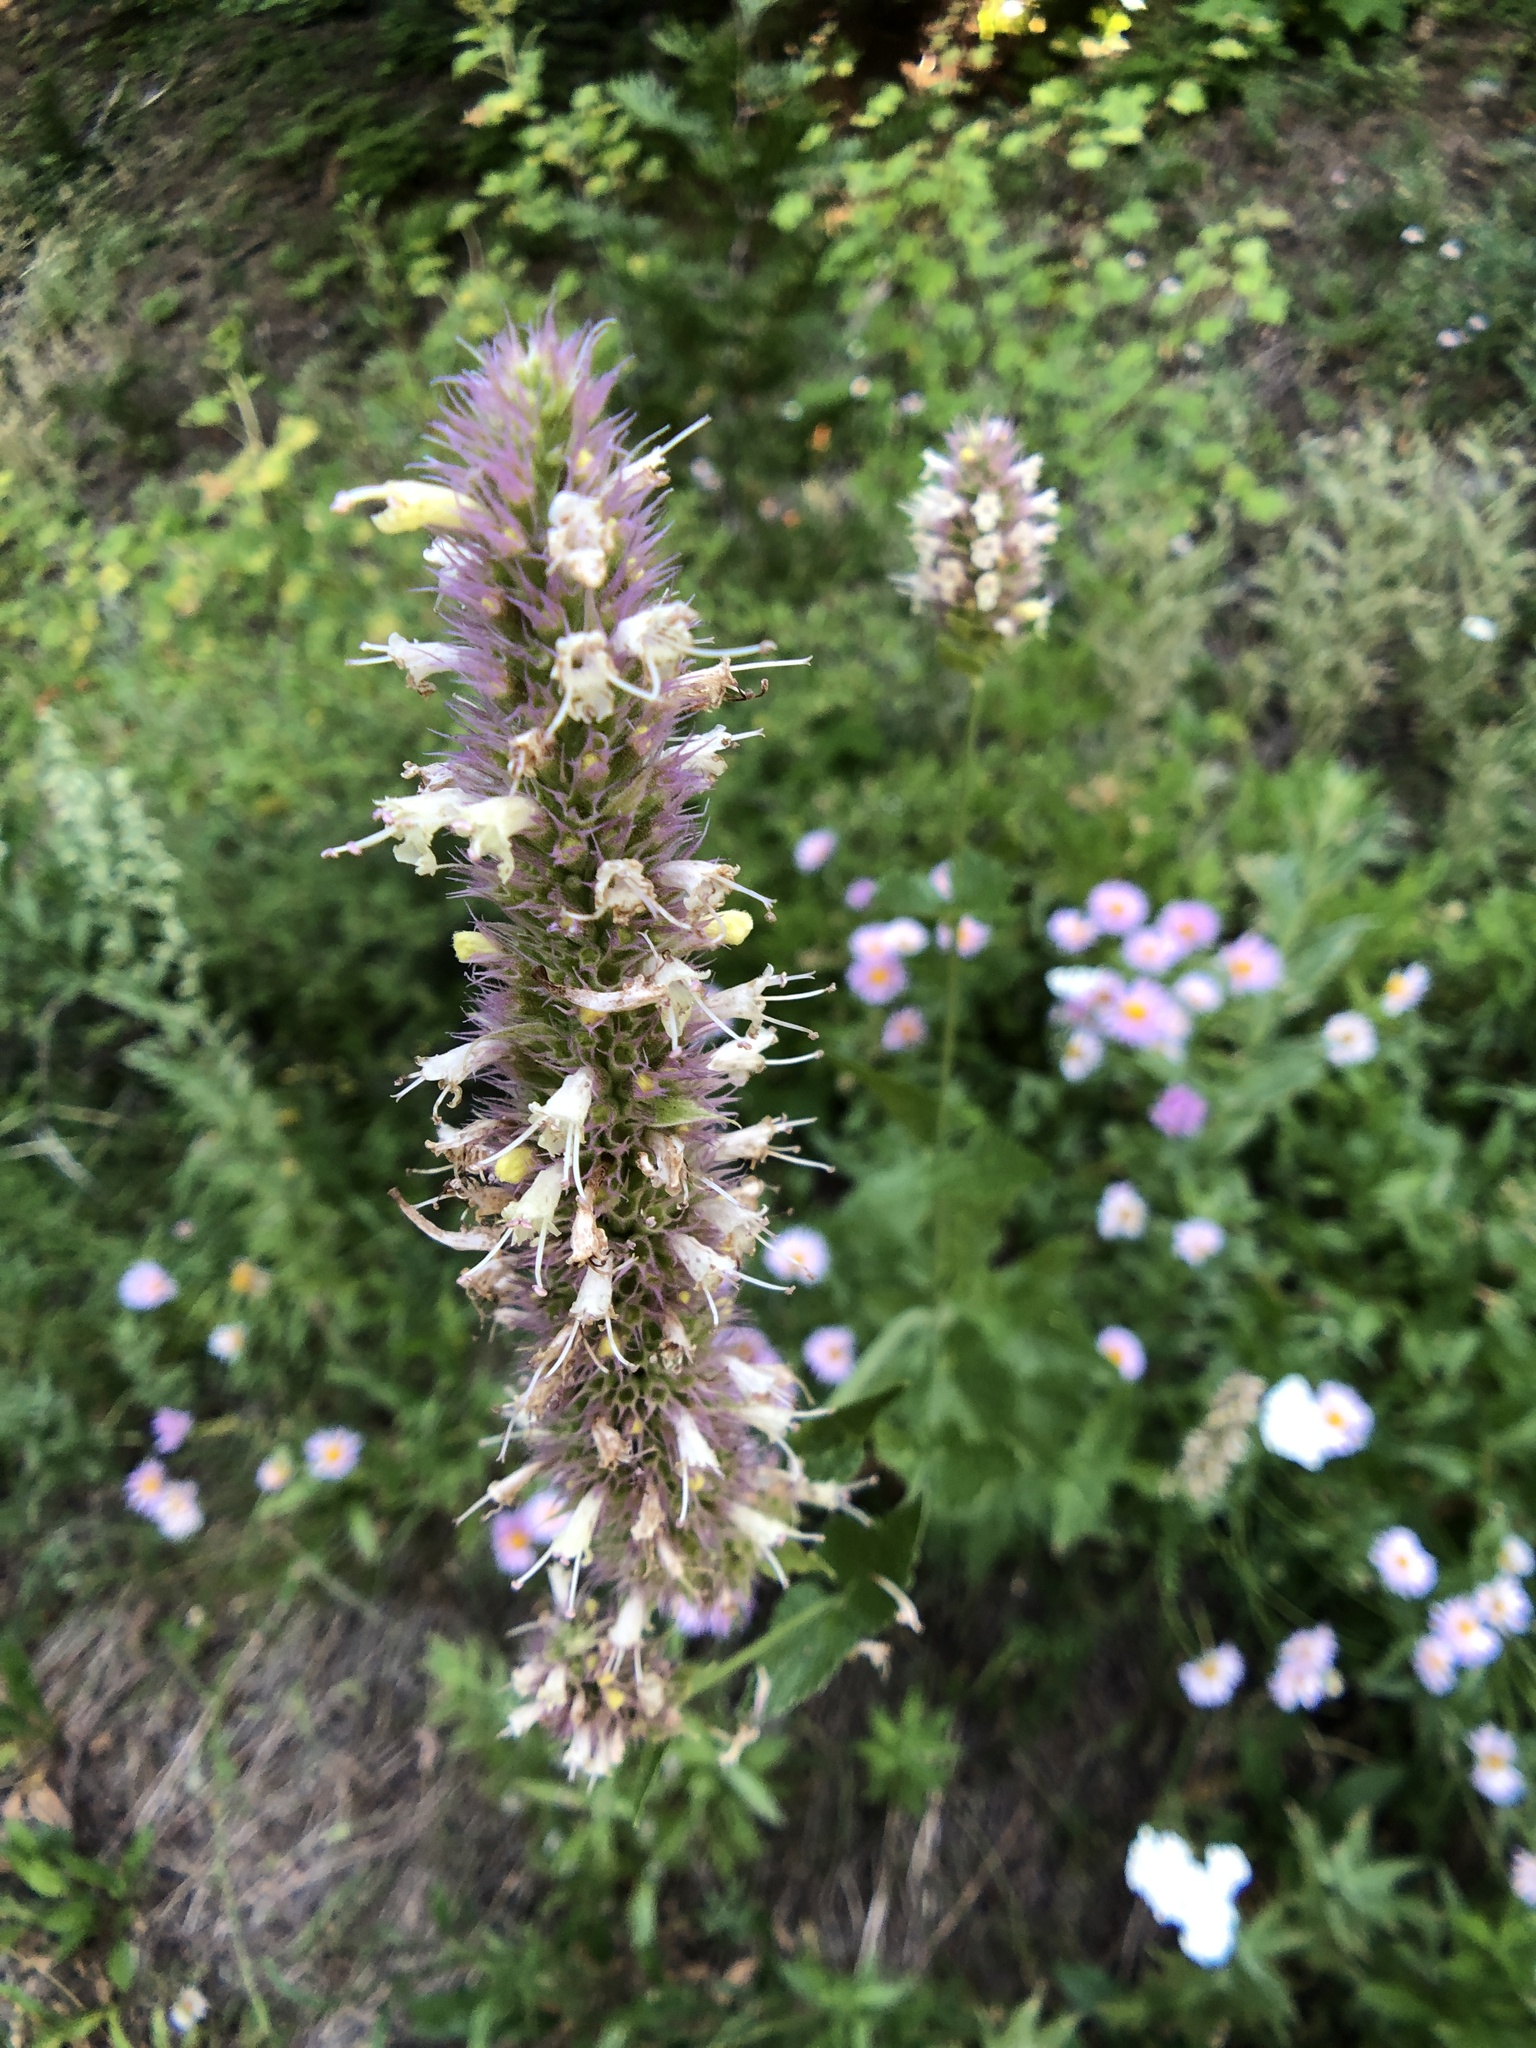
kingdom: Plantae
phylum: Tracheophyta
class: Magnoliopsida
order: Lamiales
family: Lamiaceae
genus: Agastache
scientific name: Agastache urticifolia
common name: Horsemint giant hyssop
